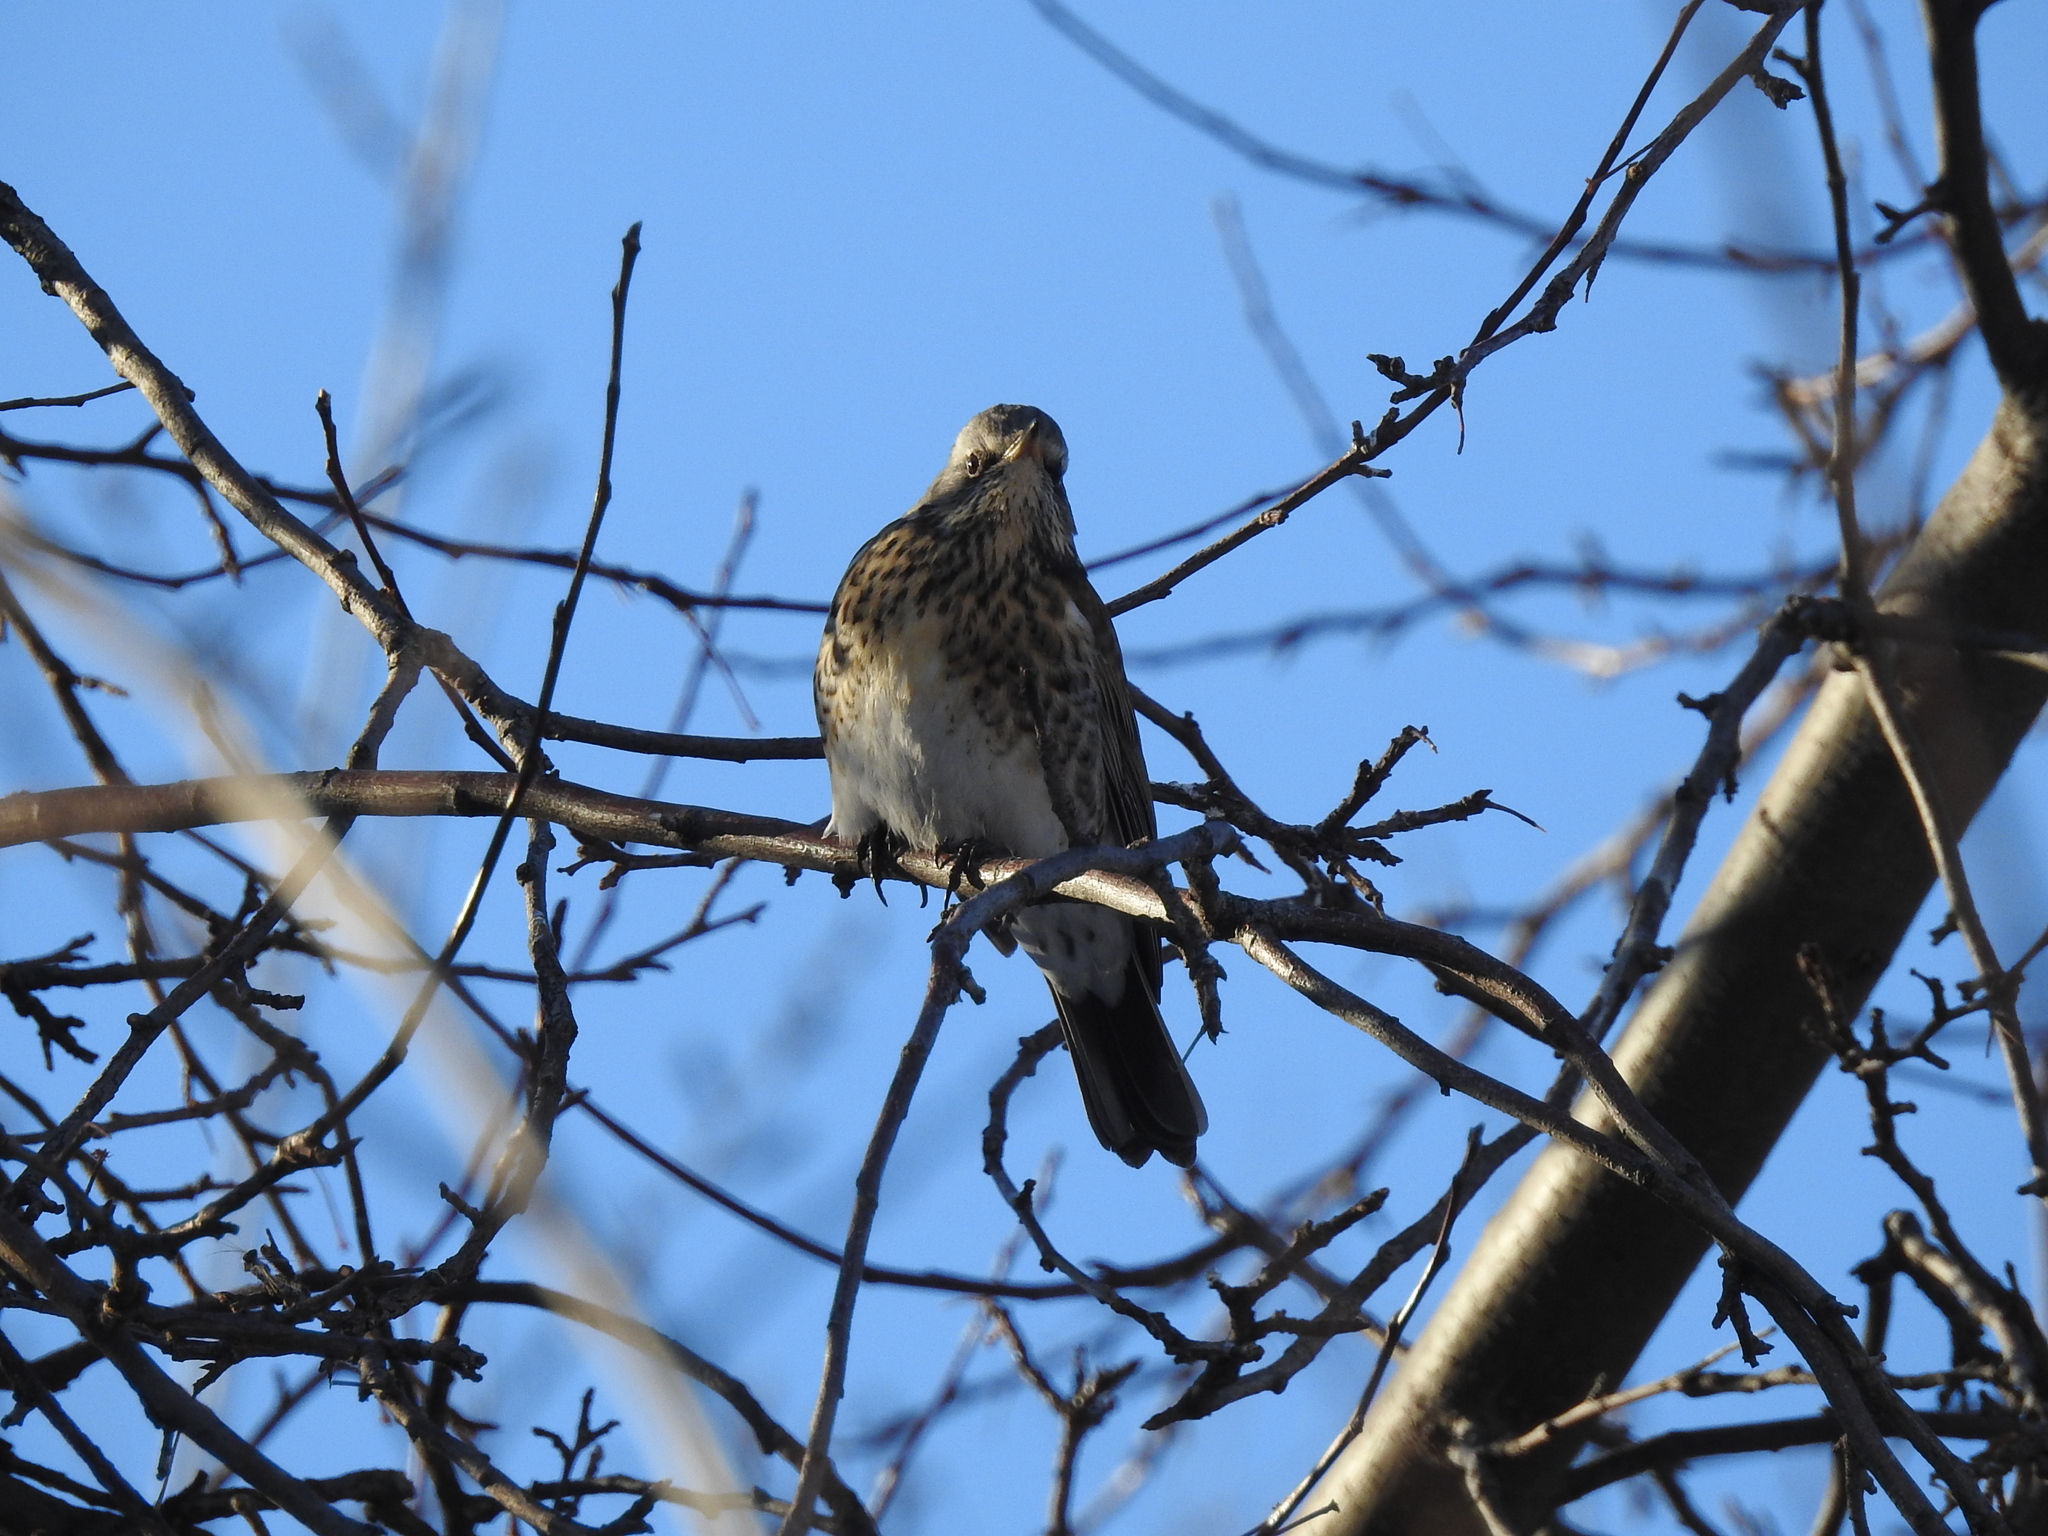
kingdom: Animalia
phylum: Chordata
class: Aves
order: Passeriformes
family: Turdidae
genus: Turdus
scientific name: Turdus pilaris
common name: Fieldfare
